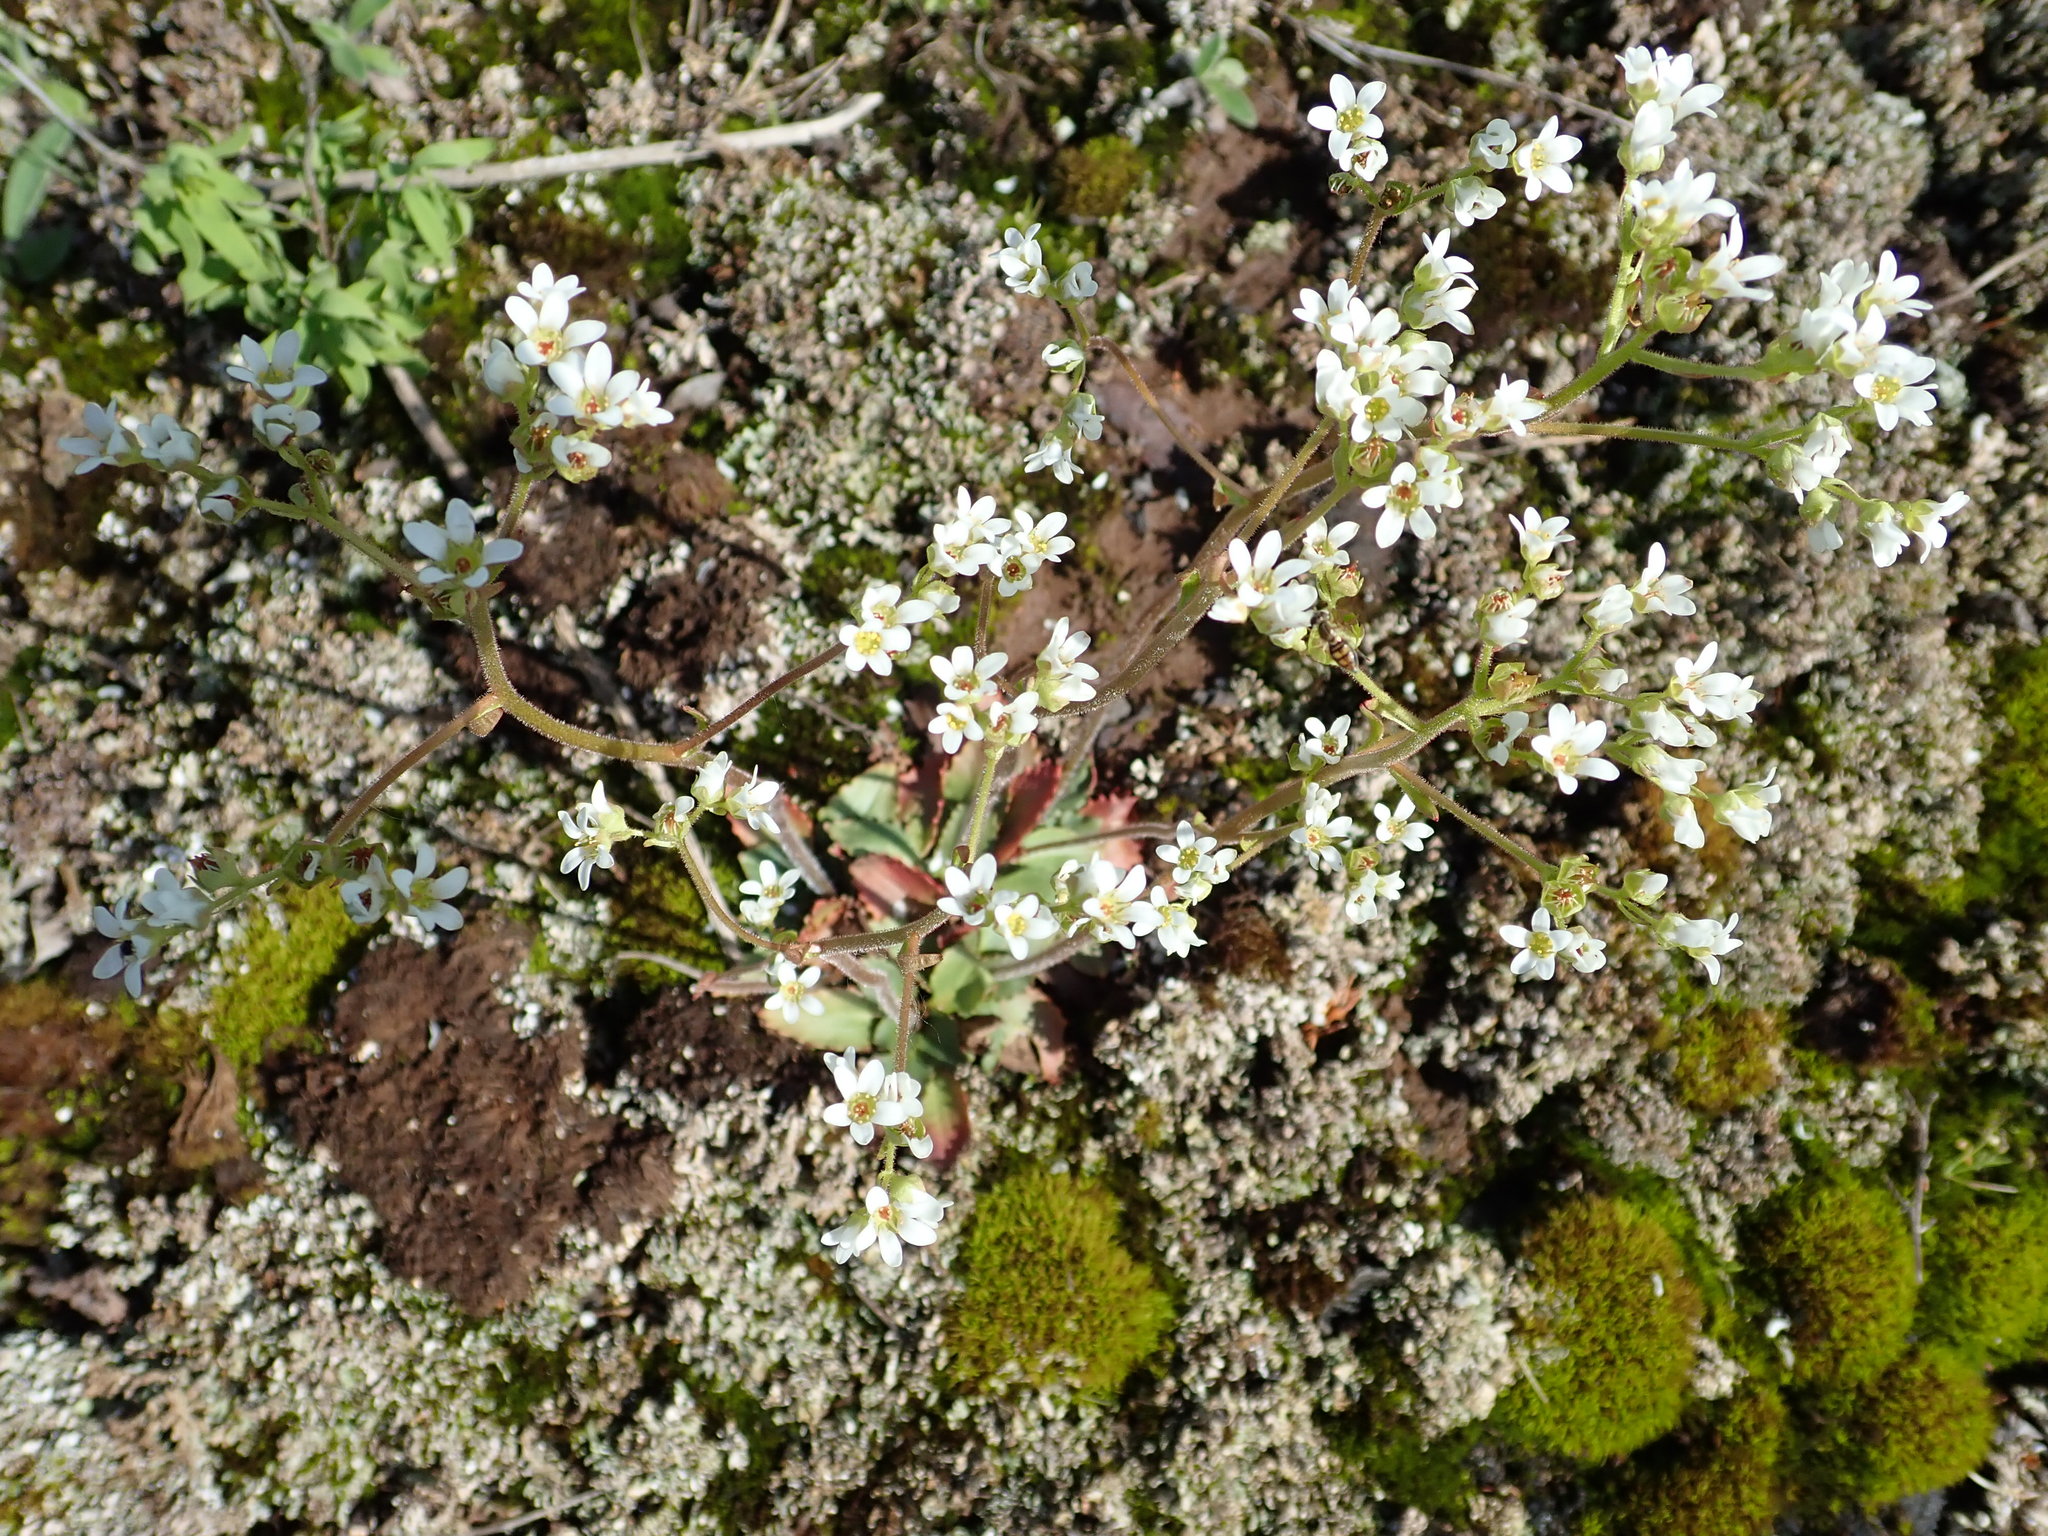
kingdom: Plantae
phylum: Tracheophyta
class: Magnoliopsida
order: Saxifragales
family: Saxifragaceae
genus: Micranthes
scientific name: Micranthes virginiensis
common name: Early saxifrage
